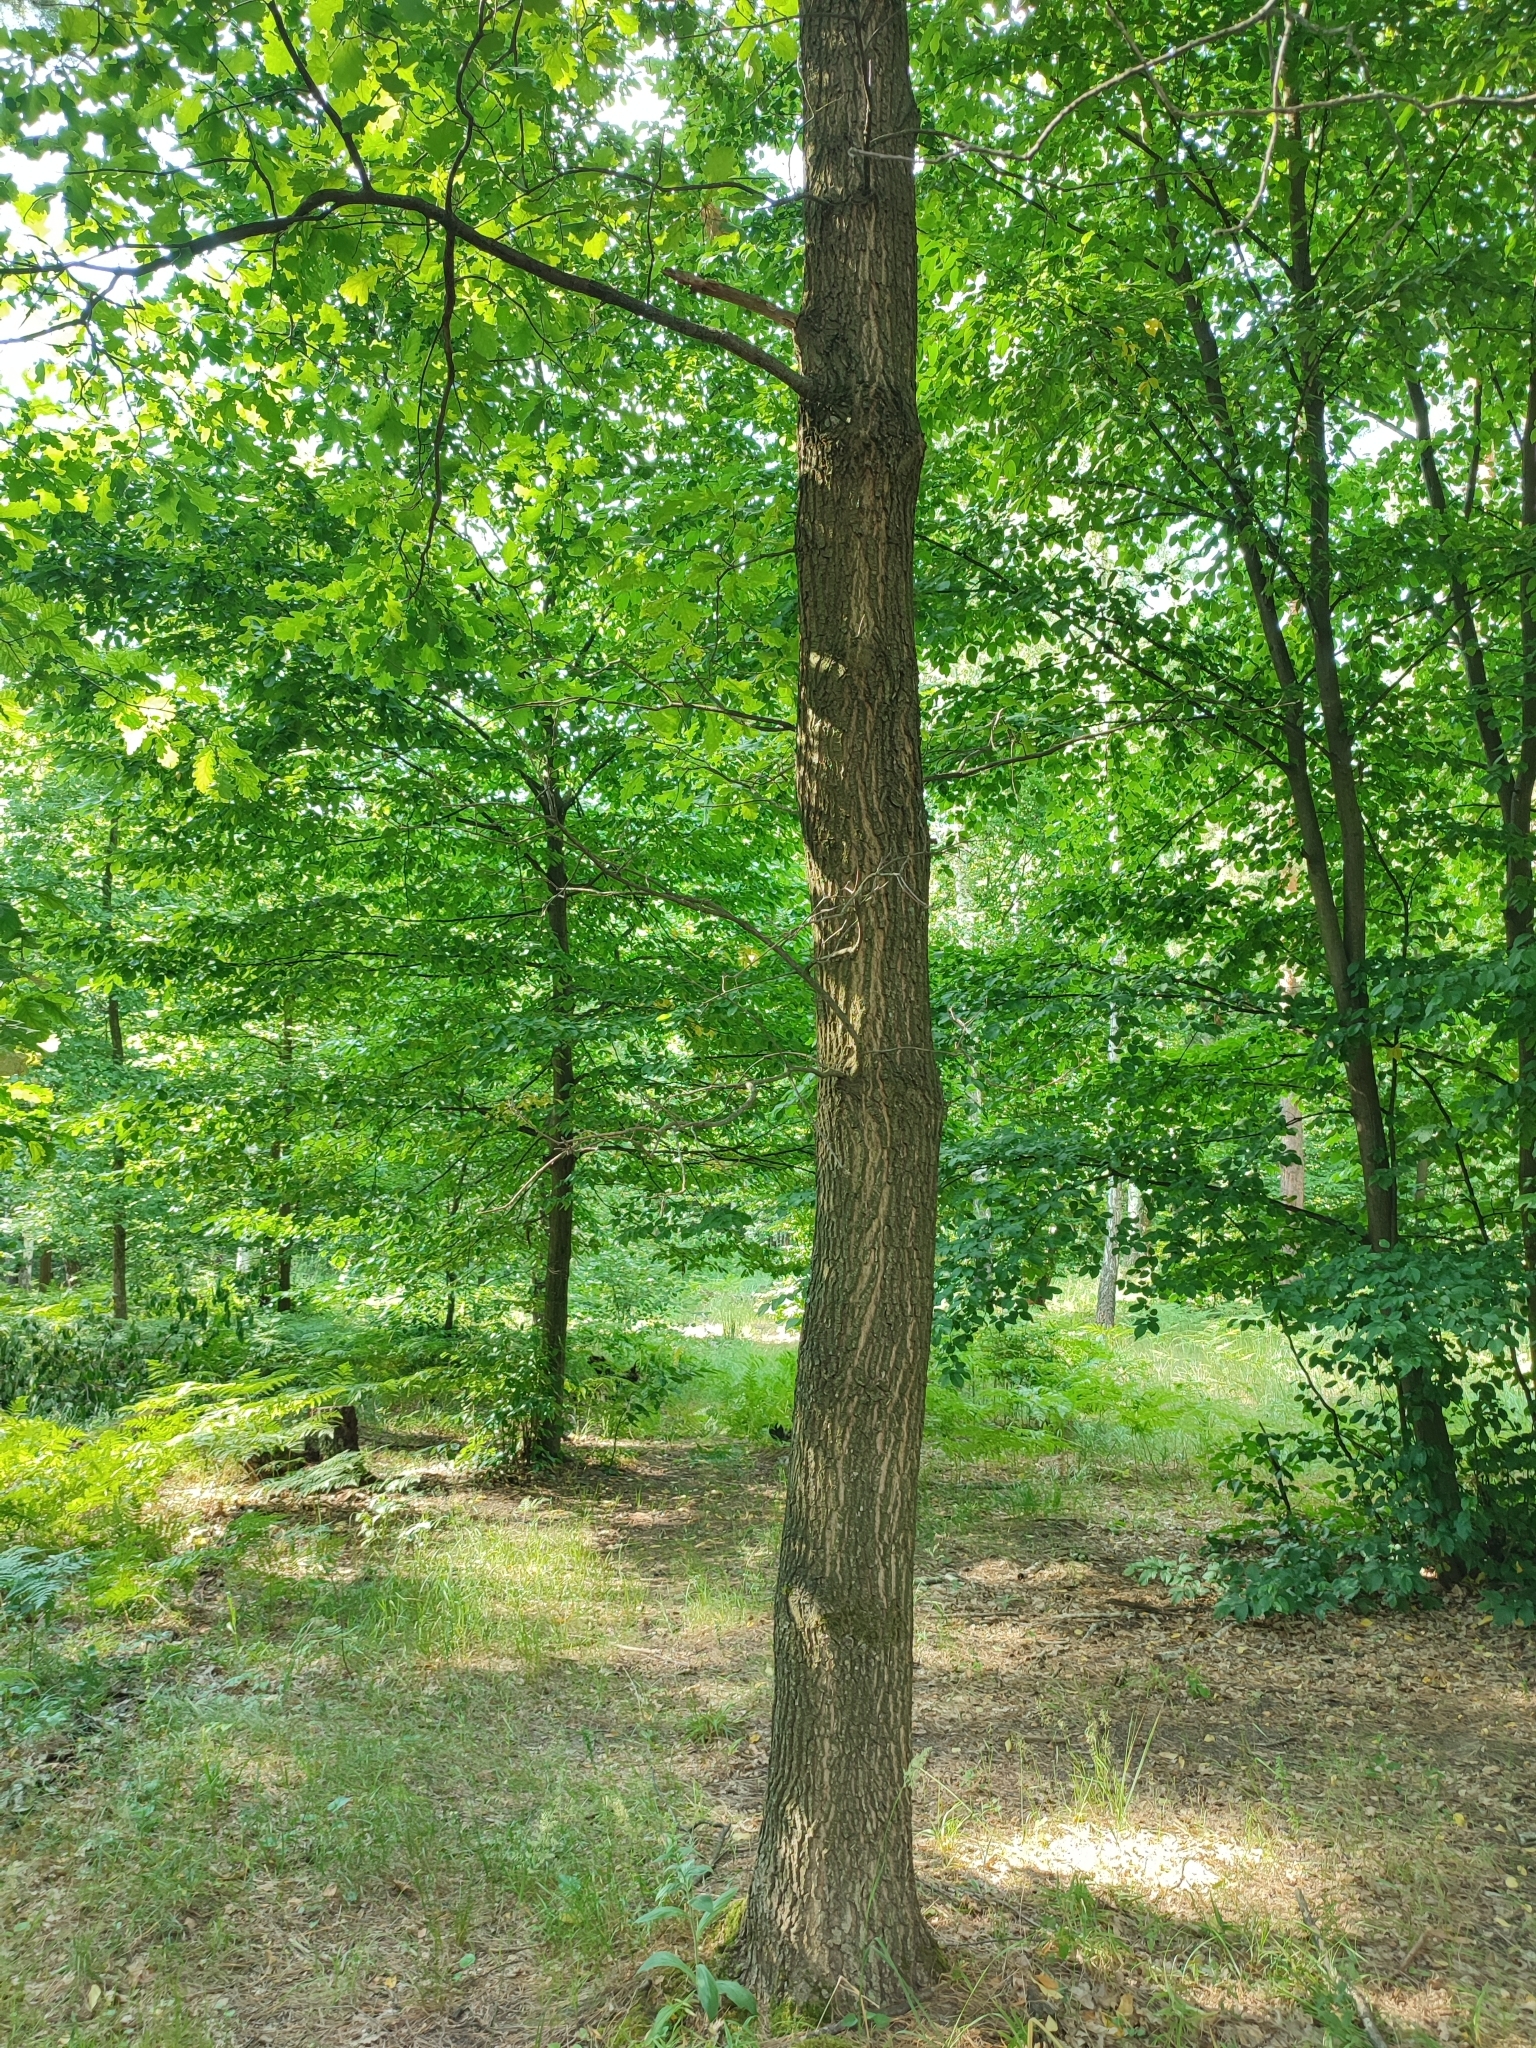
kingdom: Plantae
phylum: Tracheophyta
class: Magnoliopsida
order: Fagales
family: Fagaceae
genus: Quercus
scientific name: Quercus robur
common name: Pedunculate oak
